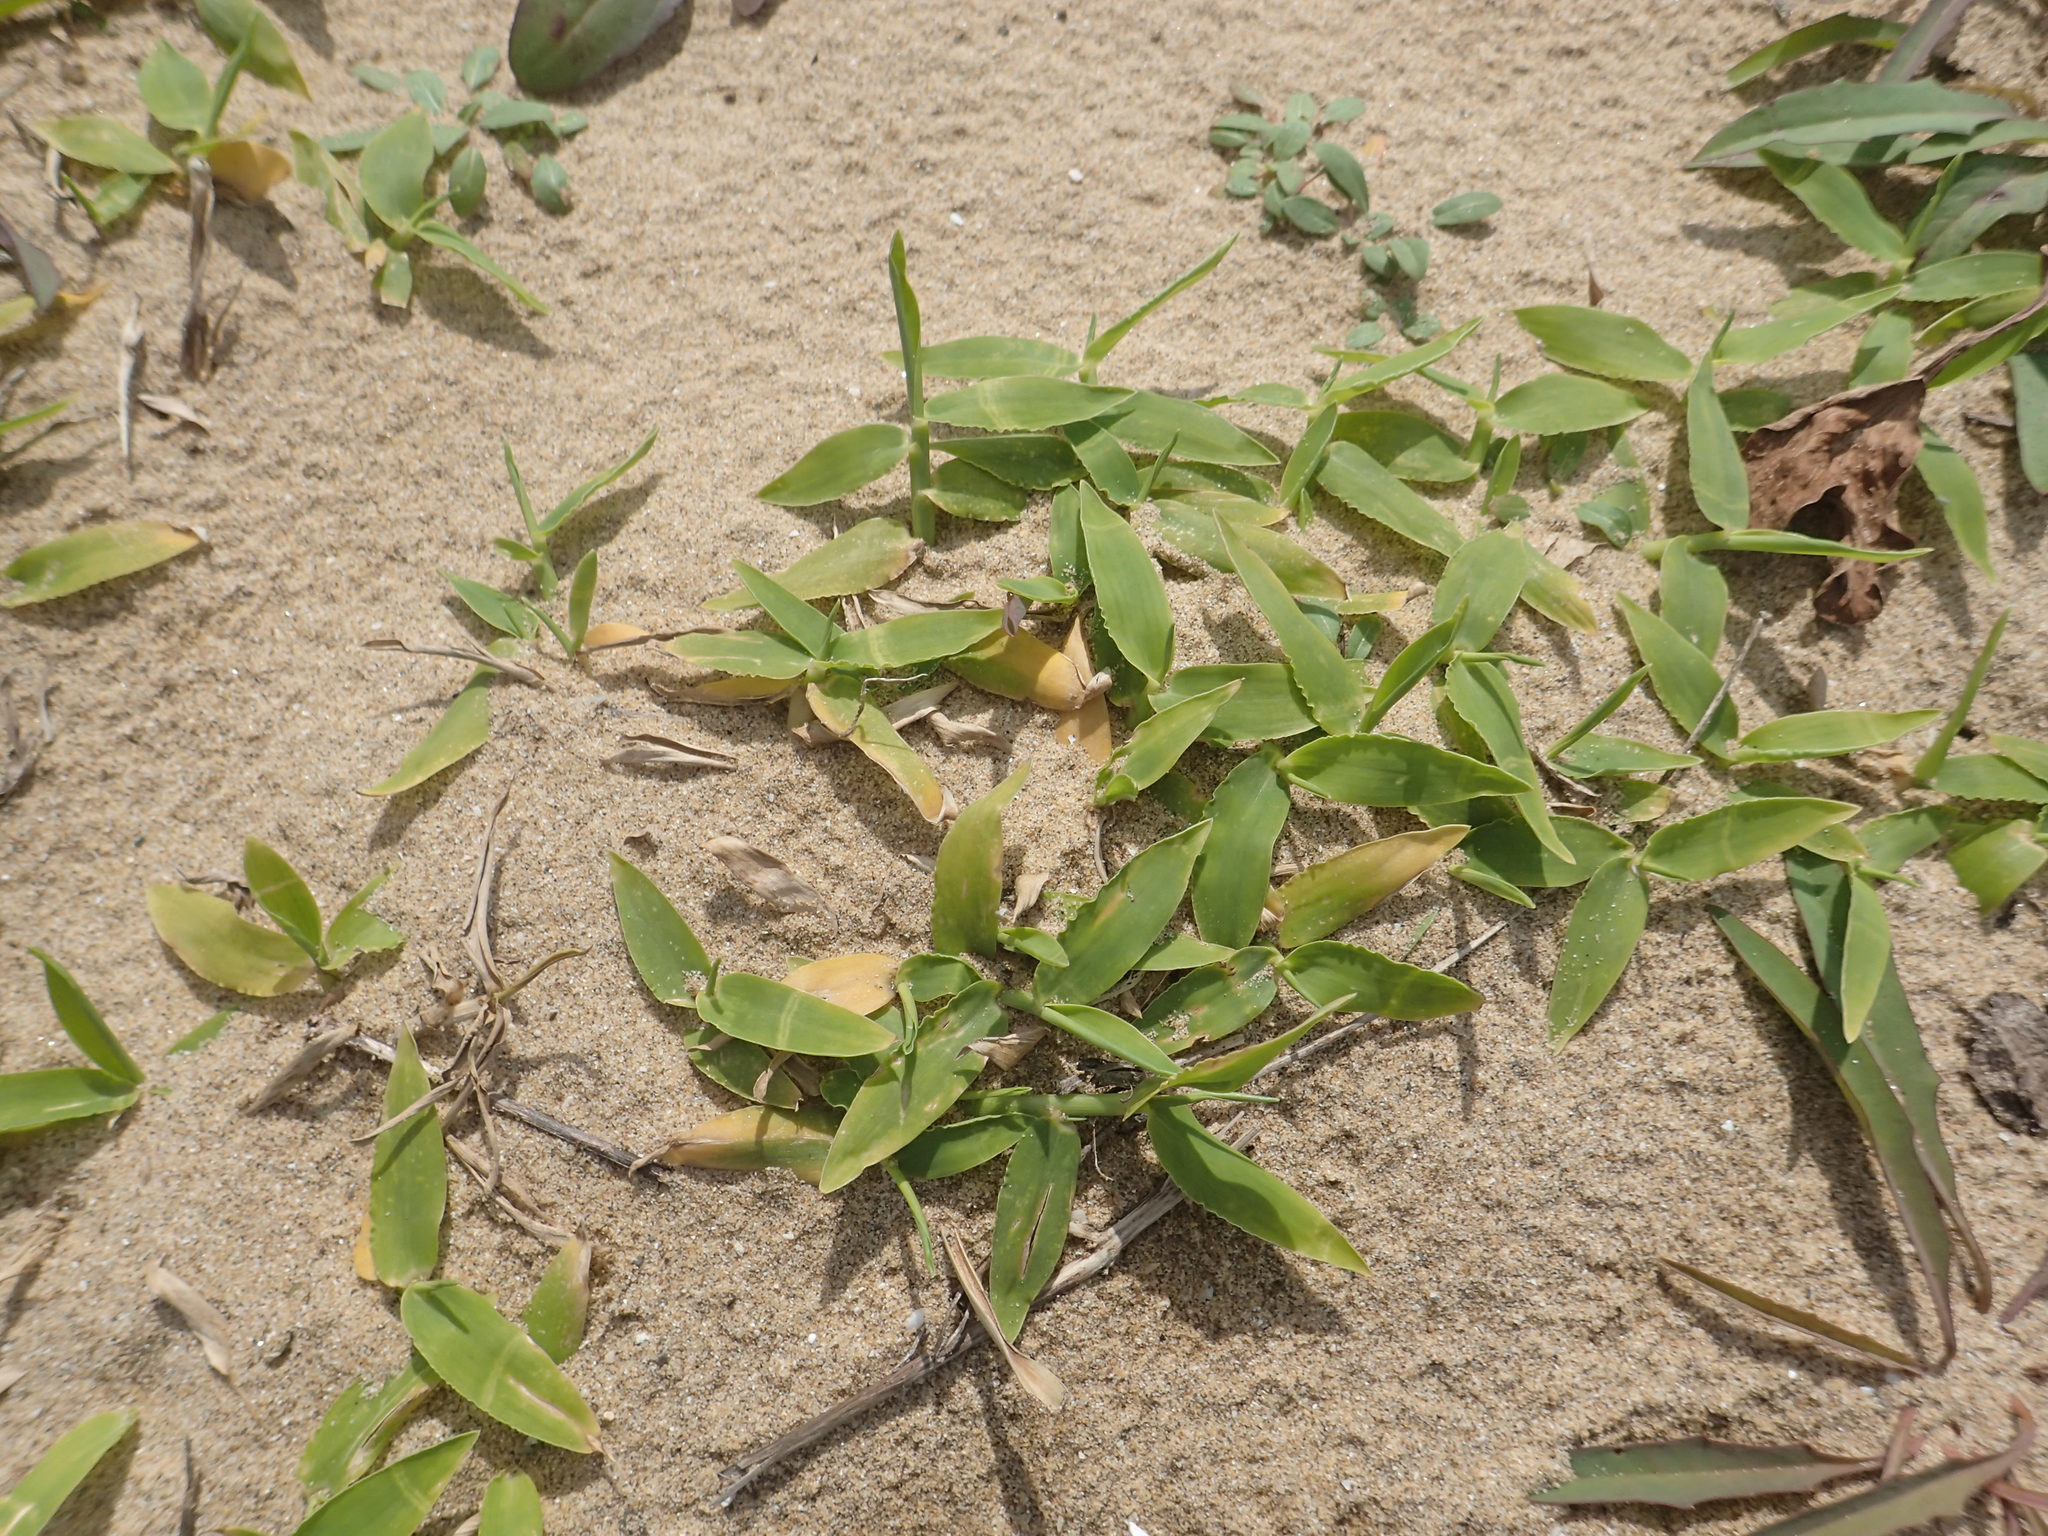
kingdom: Plantae
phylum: Tracheophyta
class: Liliopsida
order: Poales
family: Poaceae
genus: Thuarea
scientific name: Thuarea involuta
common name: Tropical beach grass
